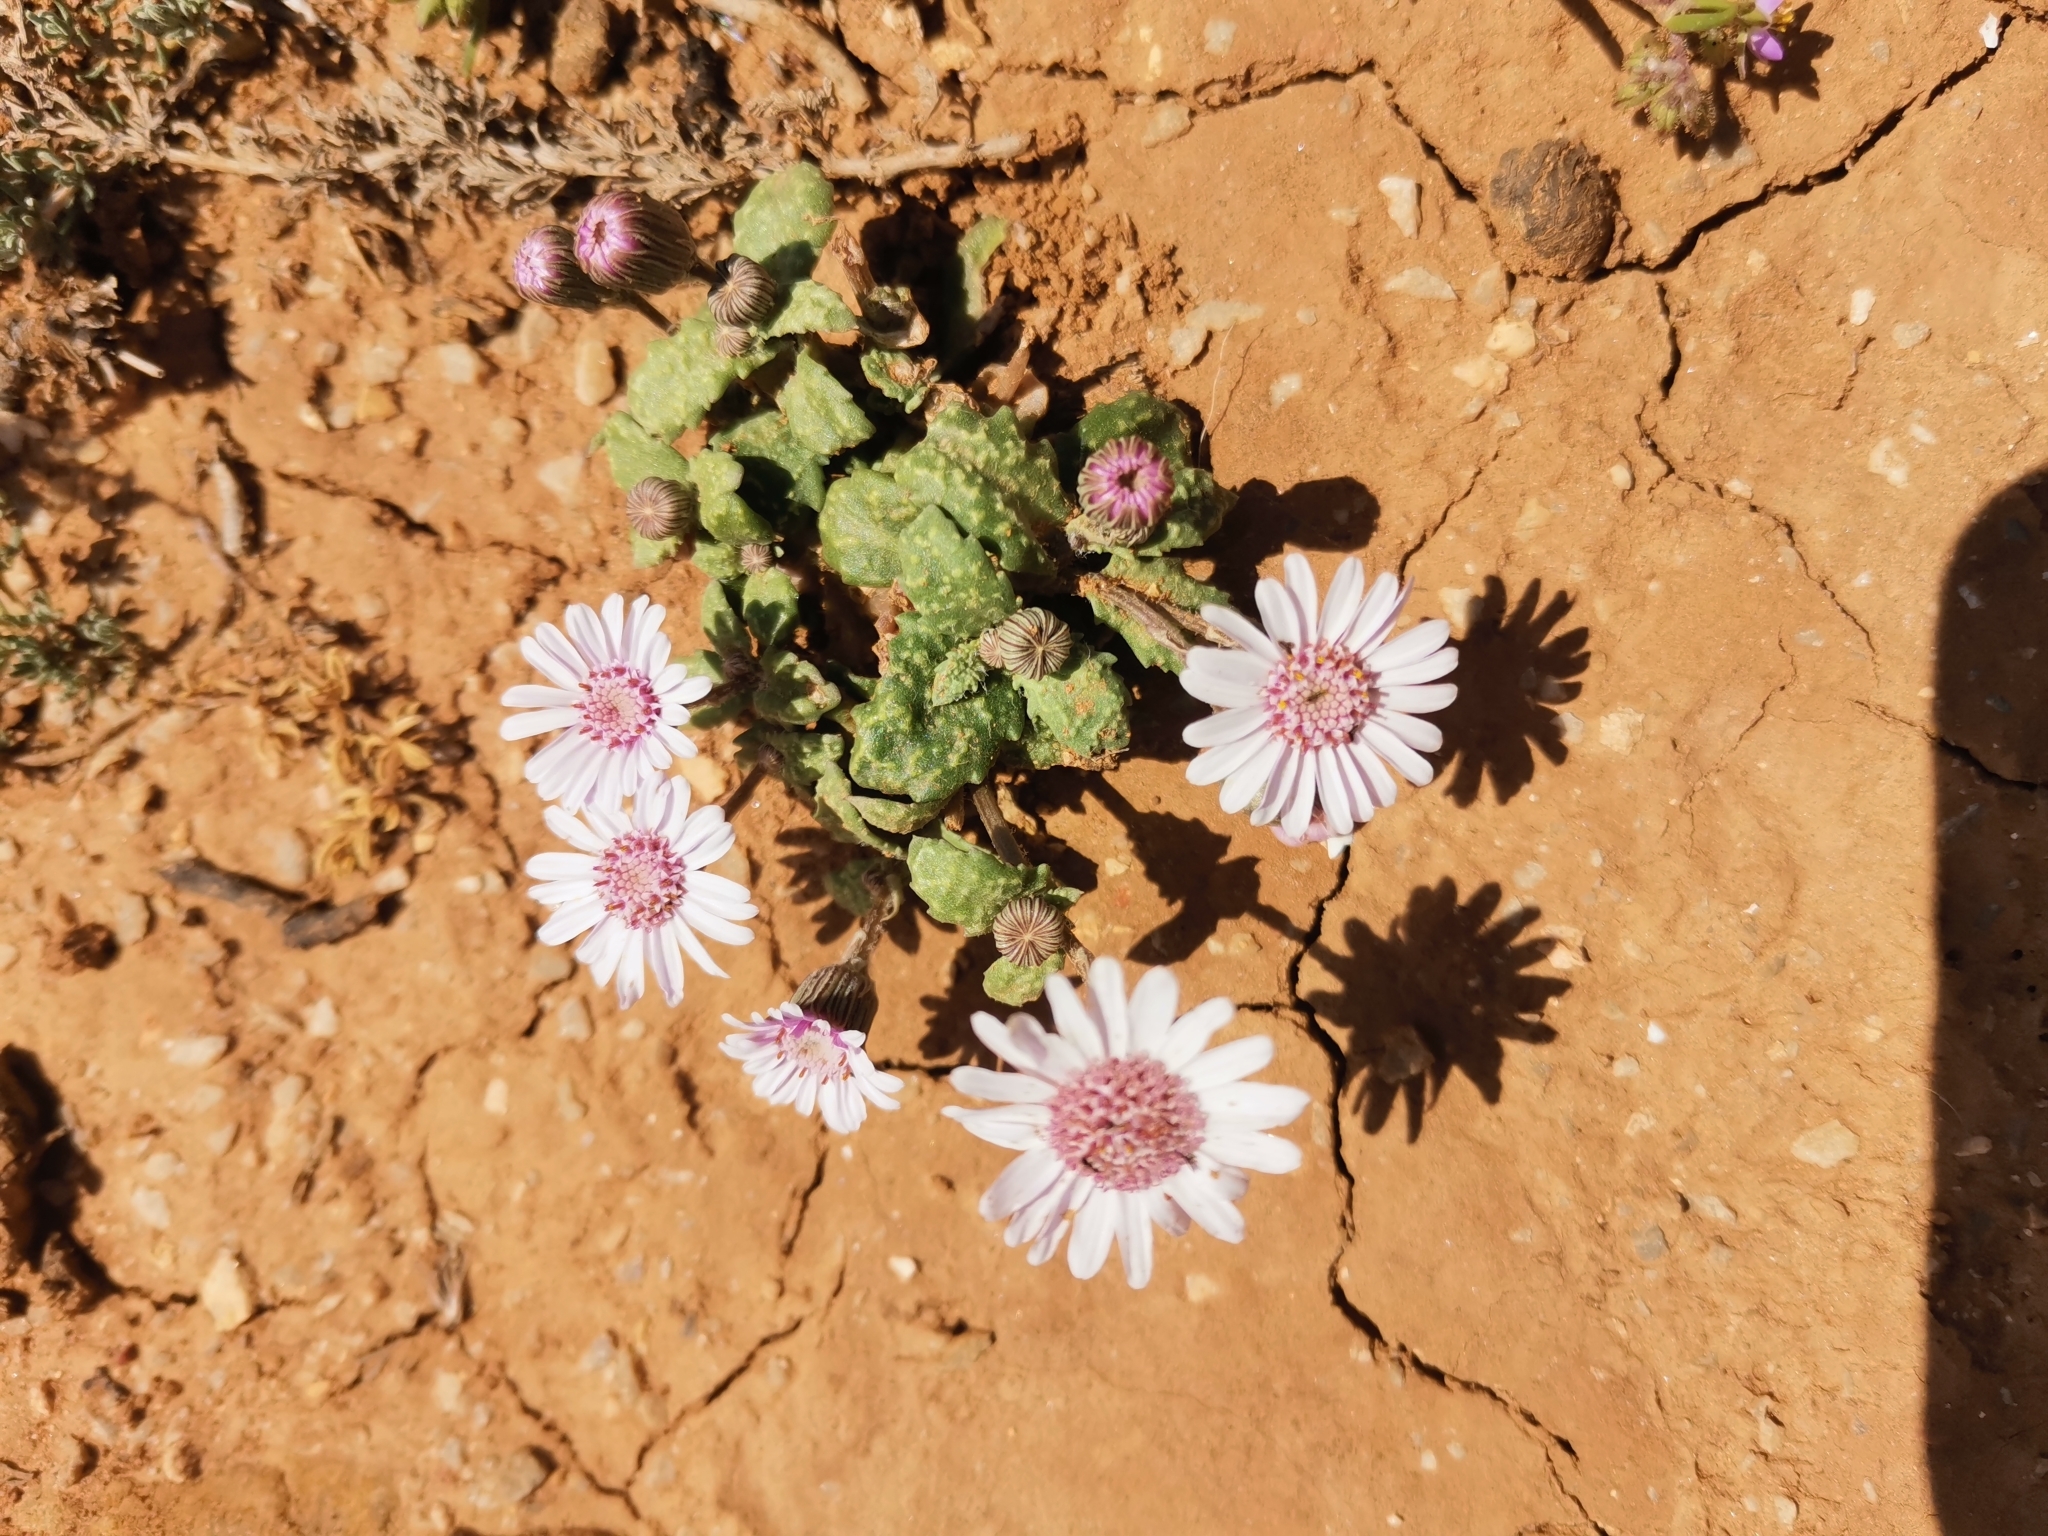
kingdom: Plantae
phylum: Tracheophyta
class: Magnoliopsida
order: Asterales
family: Asteraceae
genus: Senecio
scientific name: Senecio varicosus
